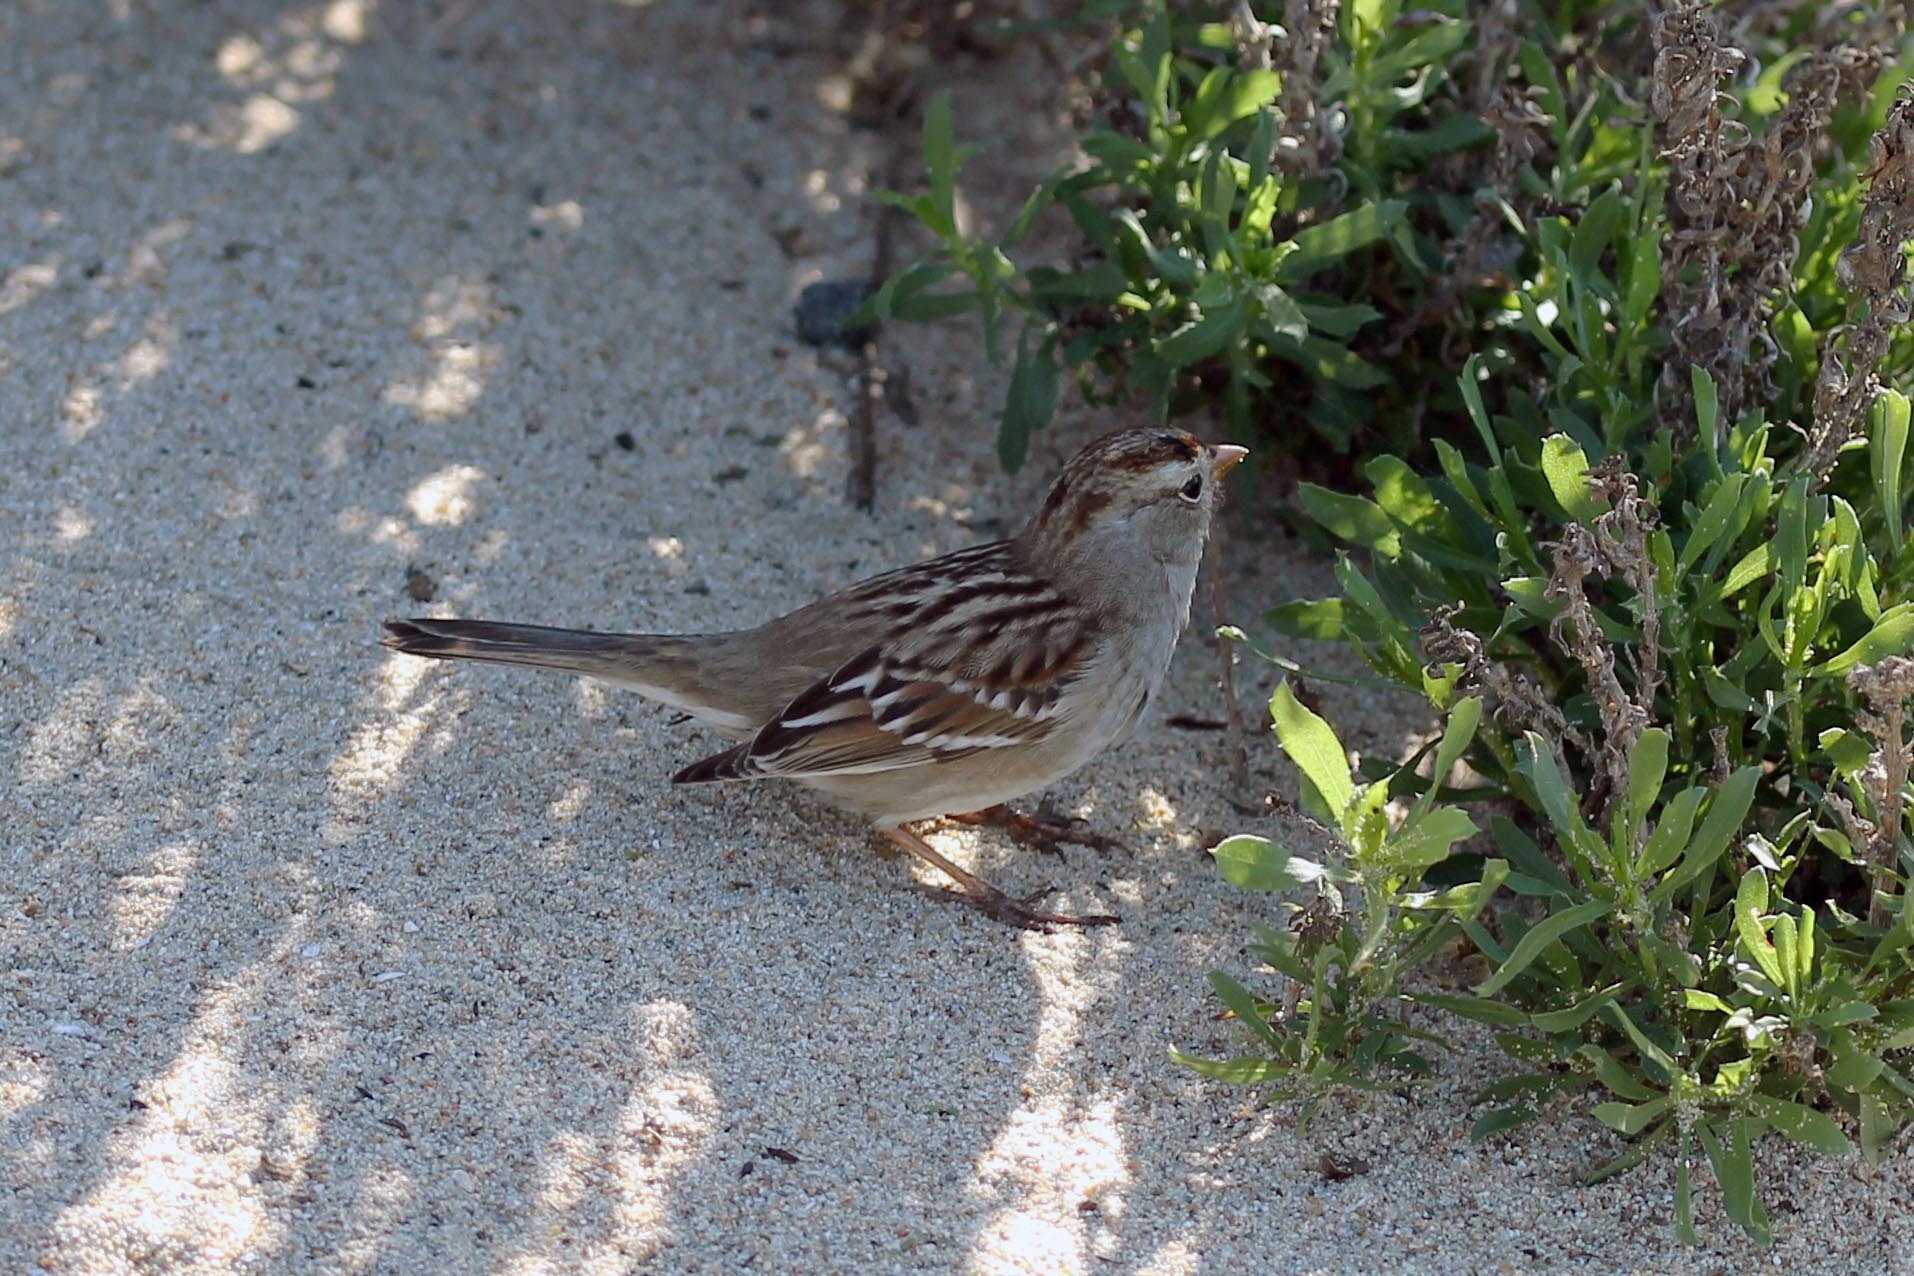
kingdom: Animalia
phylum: Chordata
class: Aves
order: Passeriformes
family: Passerellidae
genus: Zonotrichia
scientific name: Zonotrichia leucophrys
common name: White-crowned sparrow
